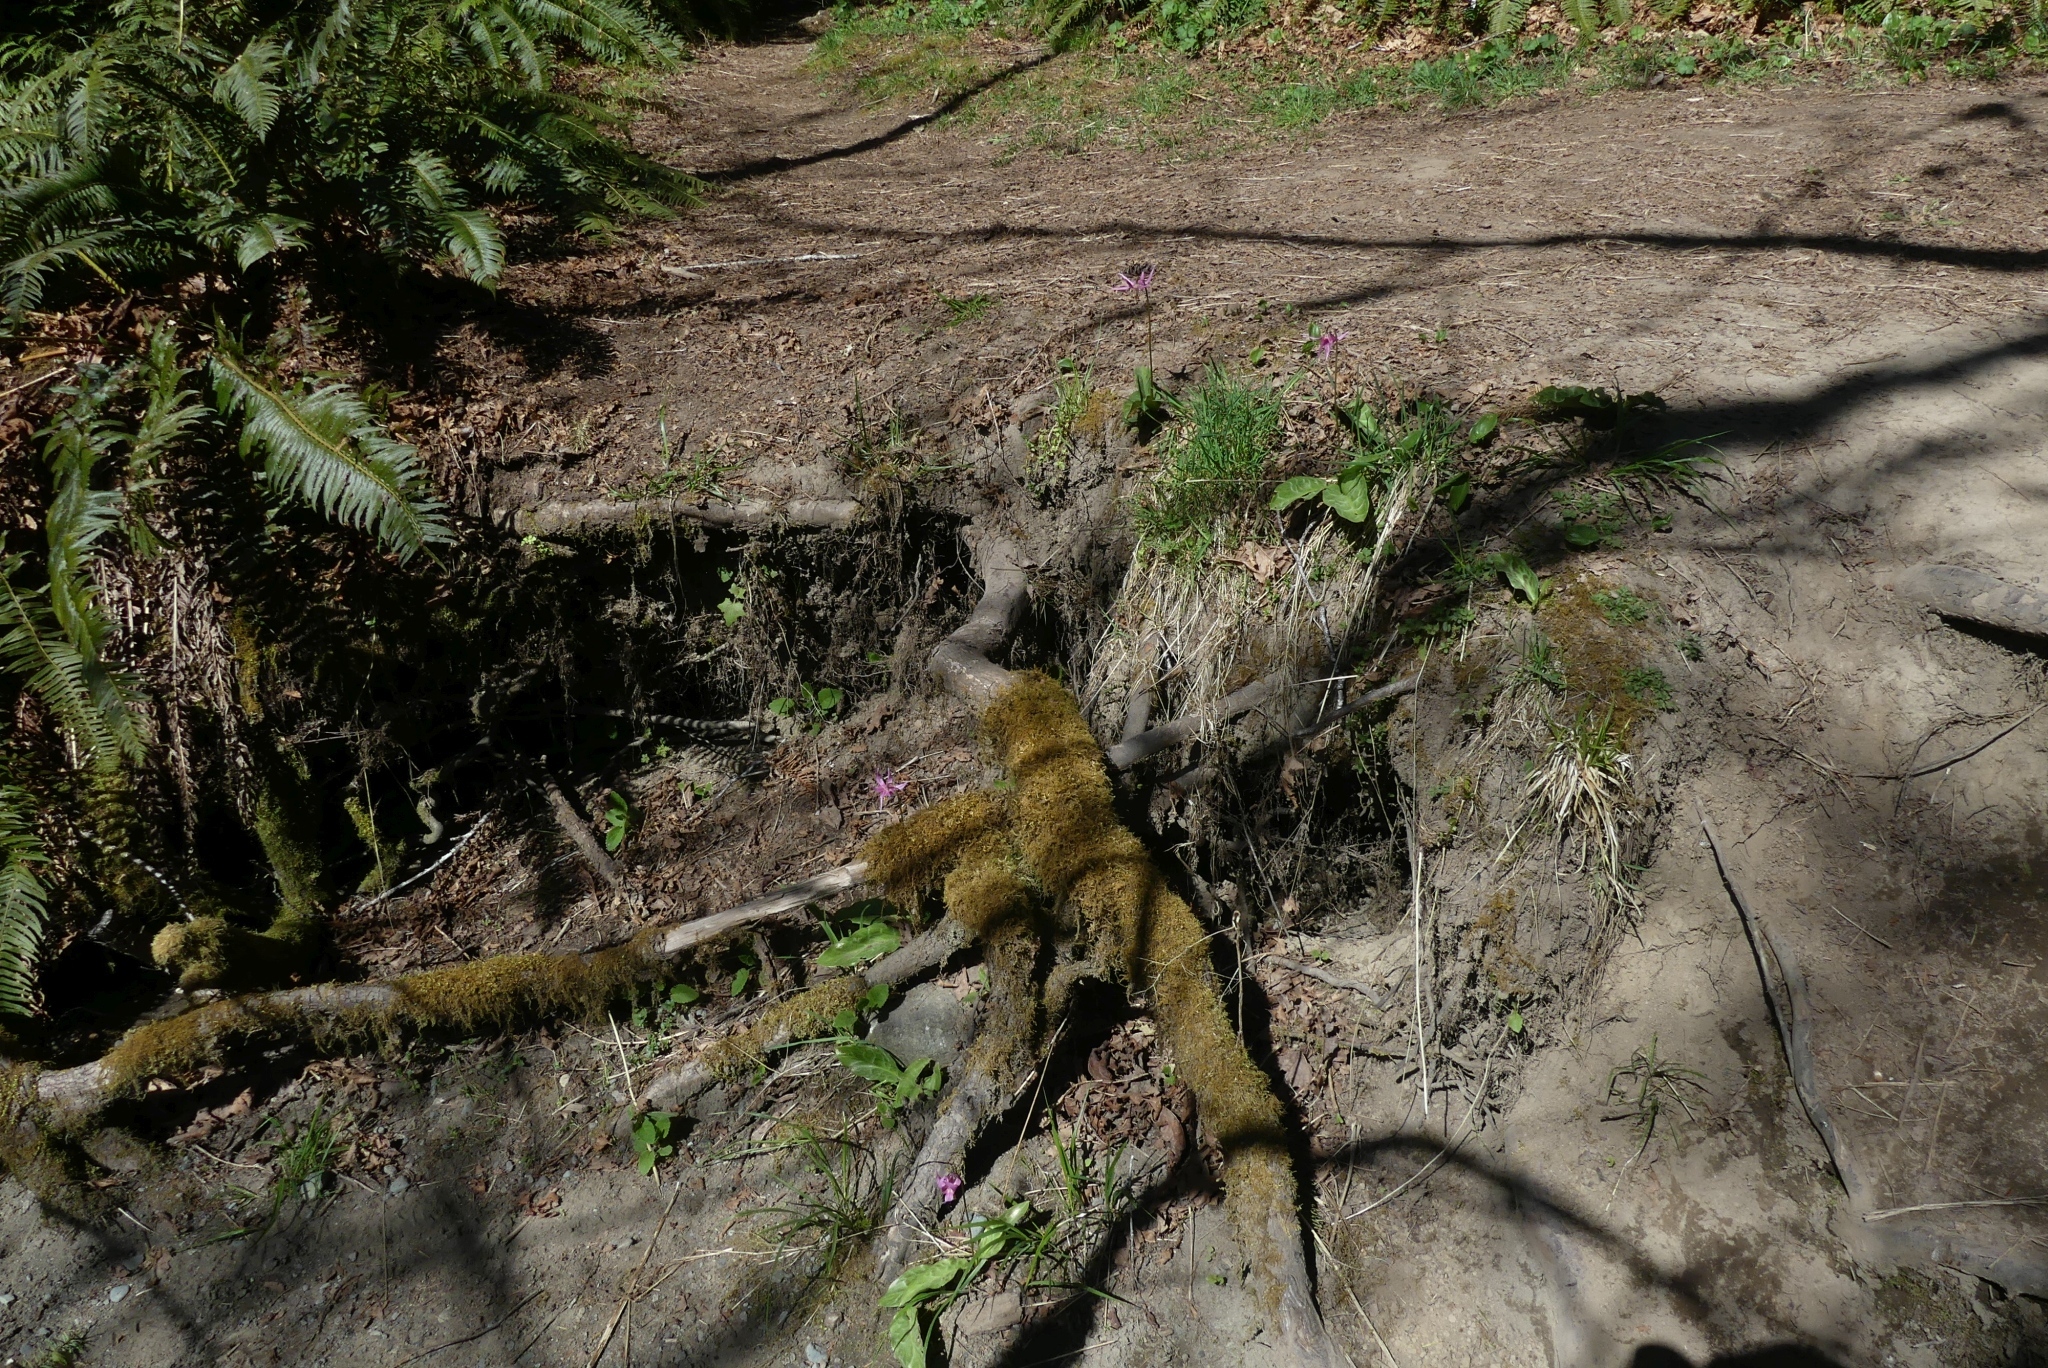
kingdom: Plantae
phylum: Tracheophyta
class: Liliopsida
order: Liliales
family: Liliaceae
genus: Erythronium
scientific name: Erythronium revolutum
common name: Pink fawn-lily
